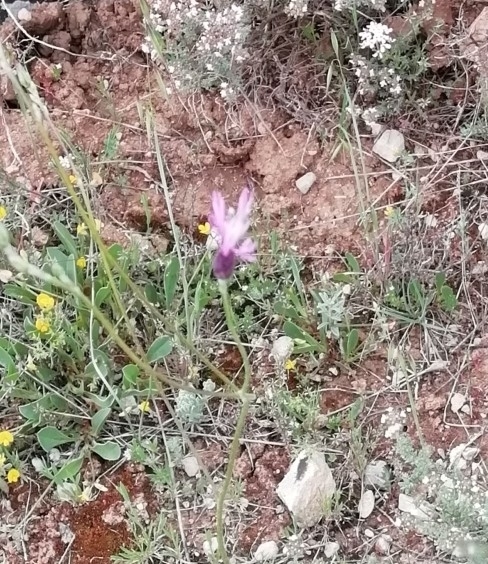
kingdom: Plantae
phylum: Tracheophyta
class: Magnoliopsida
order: Asterales
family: Asteraceae
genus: Crupina
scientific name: Crupina vulgaris
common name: Common crupina
